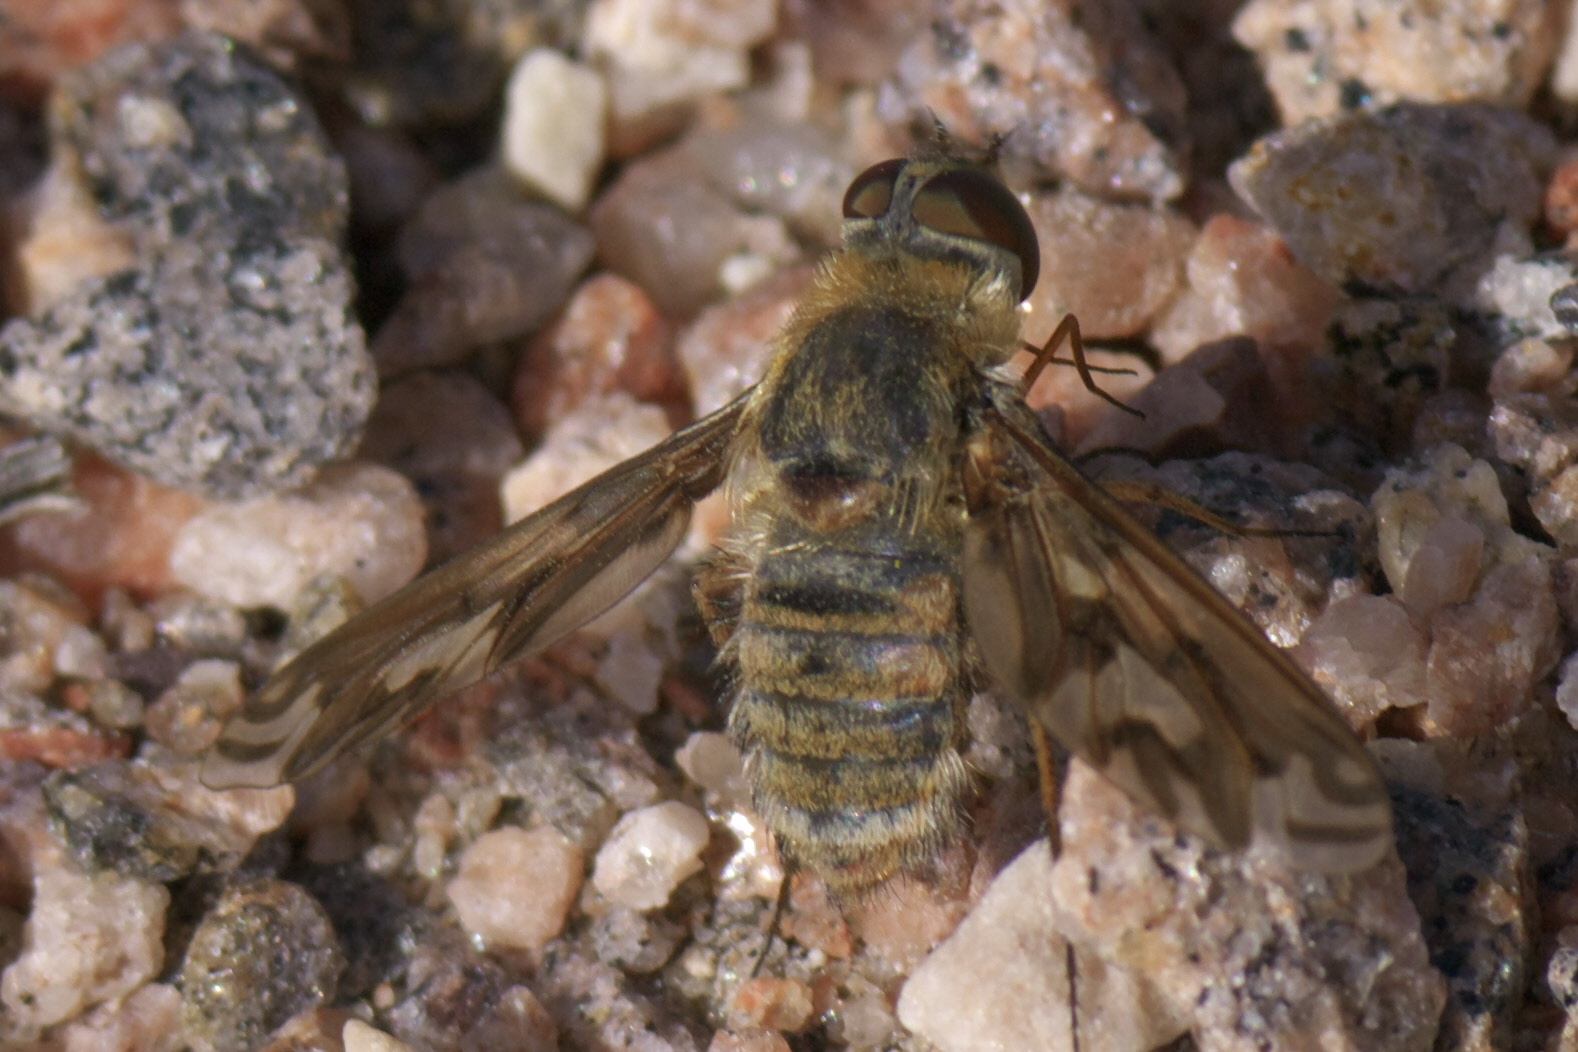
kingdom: Animalia
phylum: Arthropoda
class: Insecta
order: Diptera
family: Bombyliidae
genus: Poecilanthrax
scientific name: Poecilanthrax willistonii
